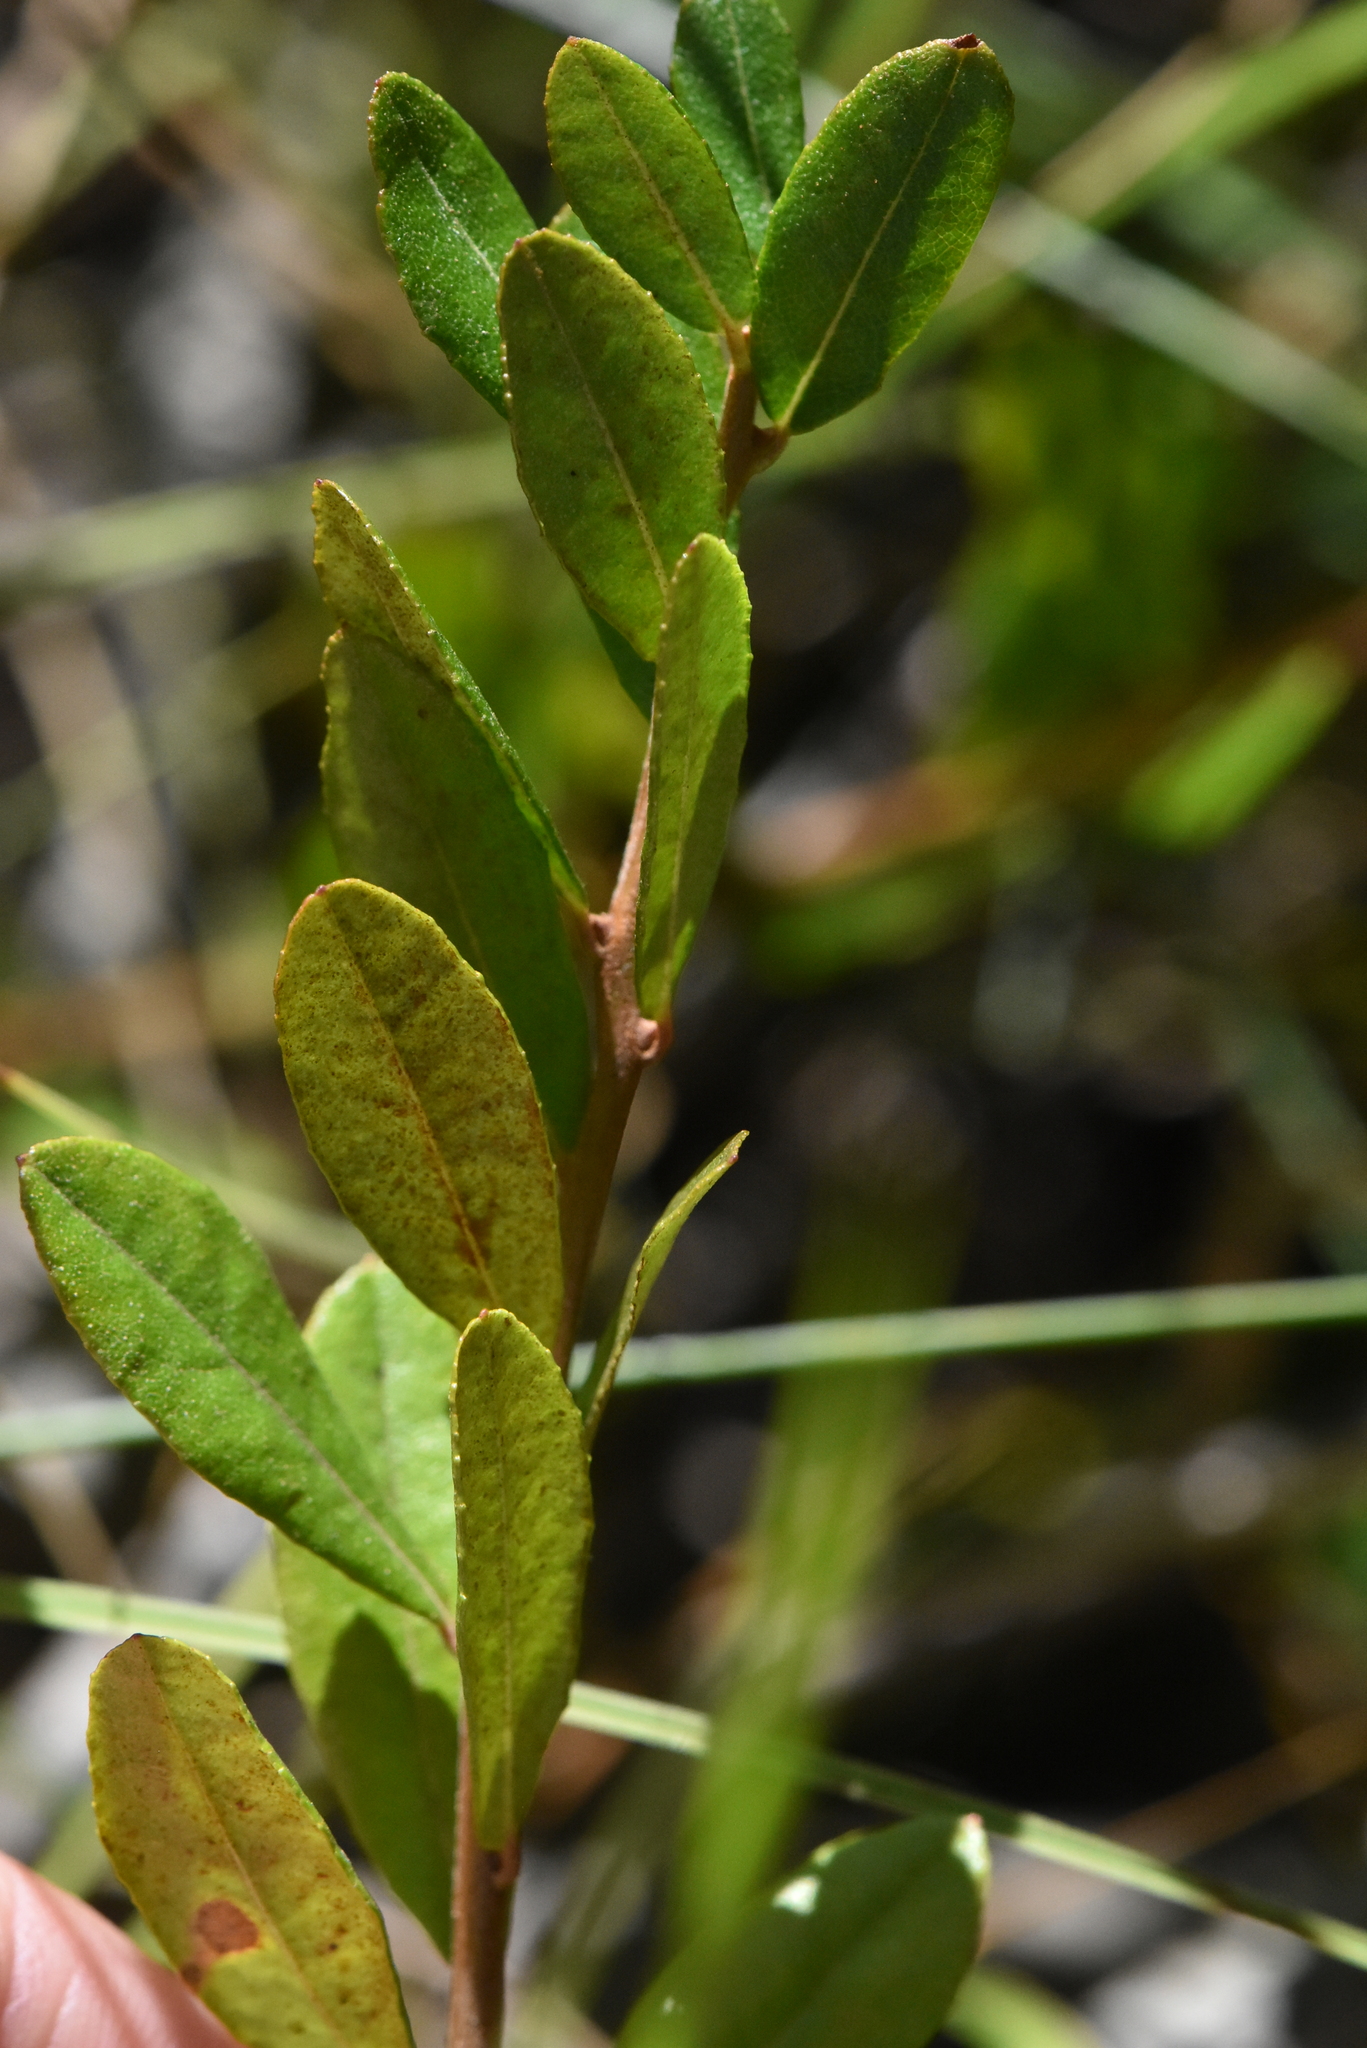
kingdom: Plantae
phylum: Tracheophyta
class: Magnoliopsida
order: Ericales
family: Ericaceae
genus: Chamaedaphne
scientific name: Chamaedaphne calyculata
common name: Leatherleaf
